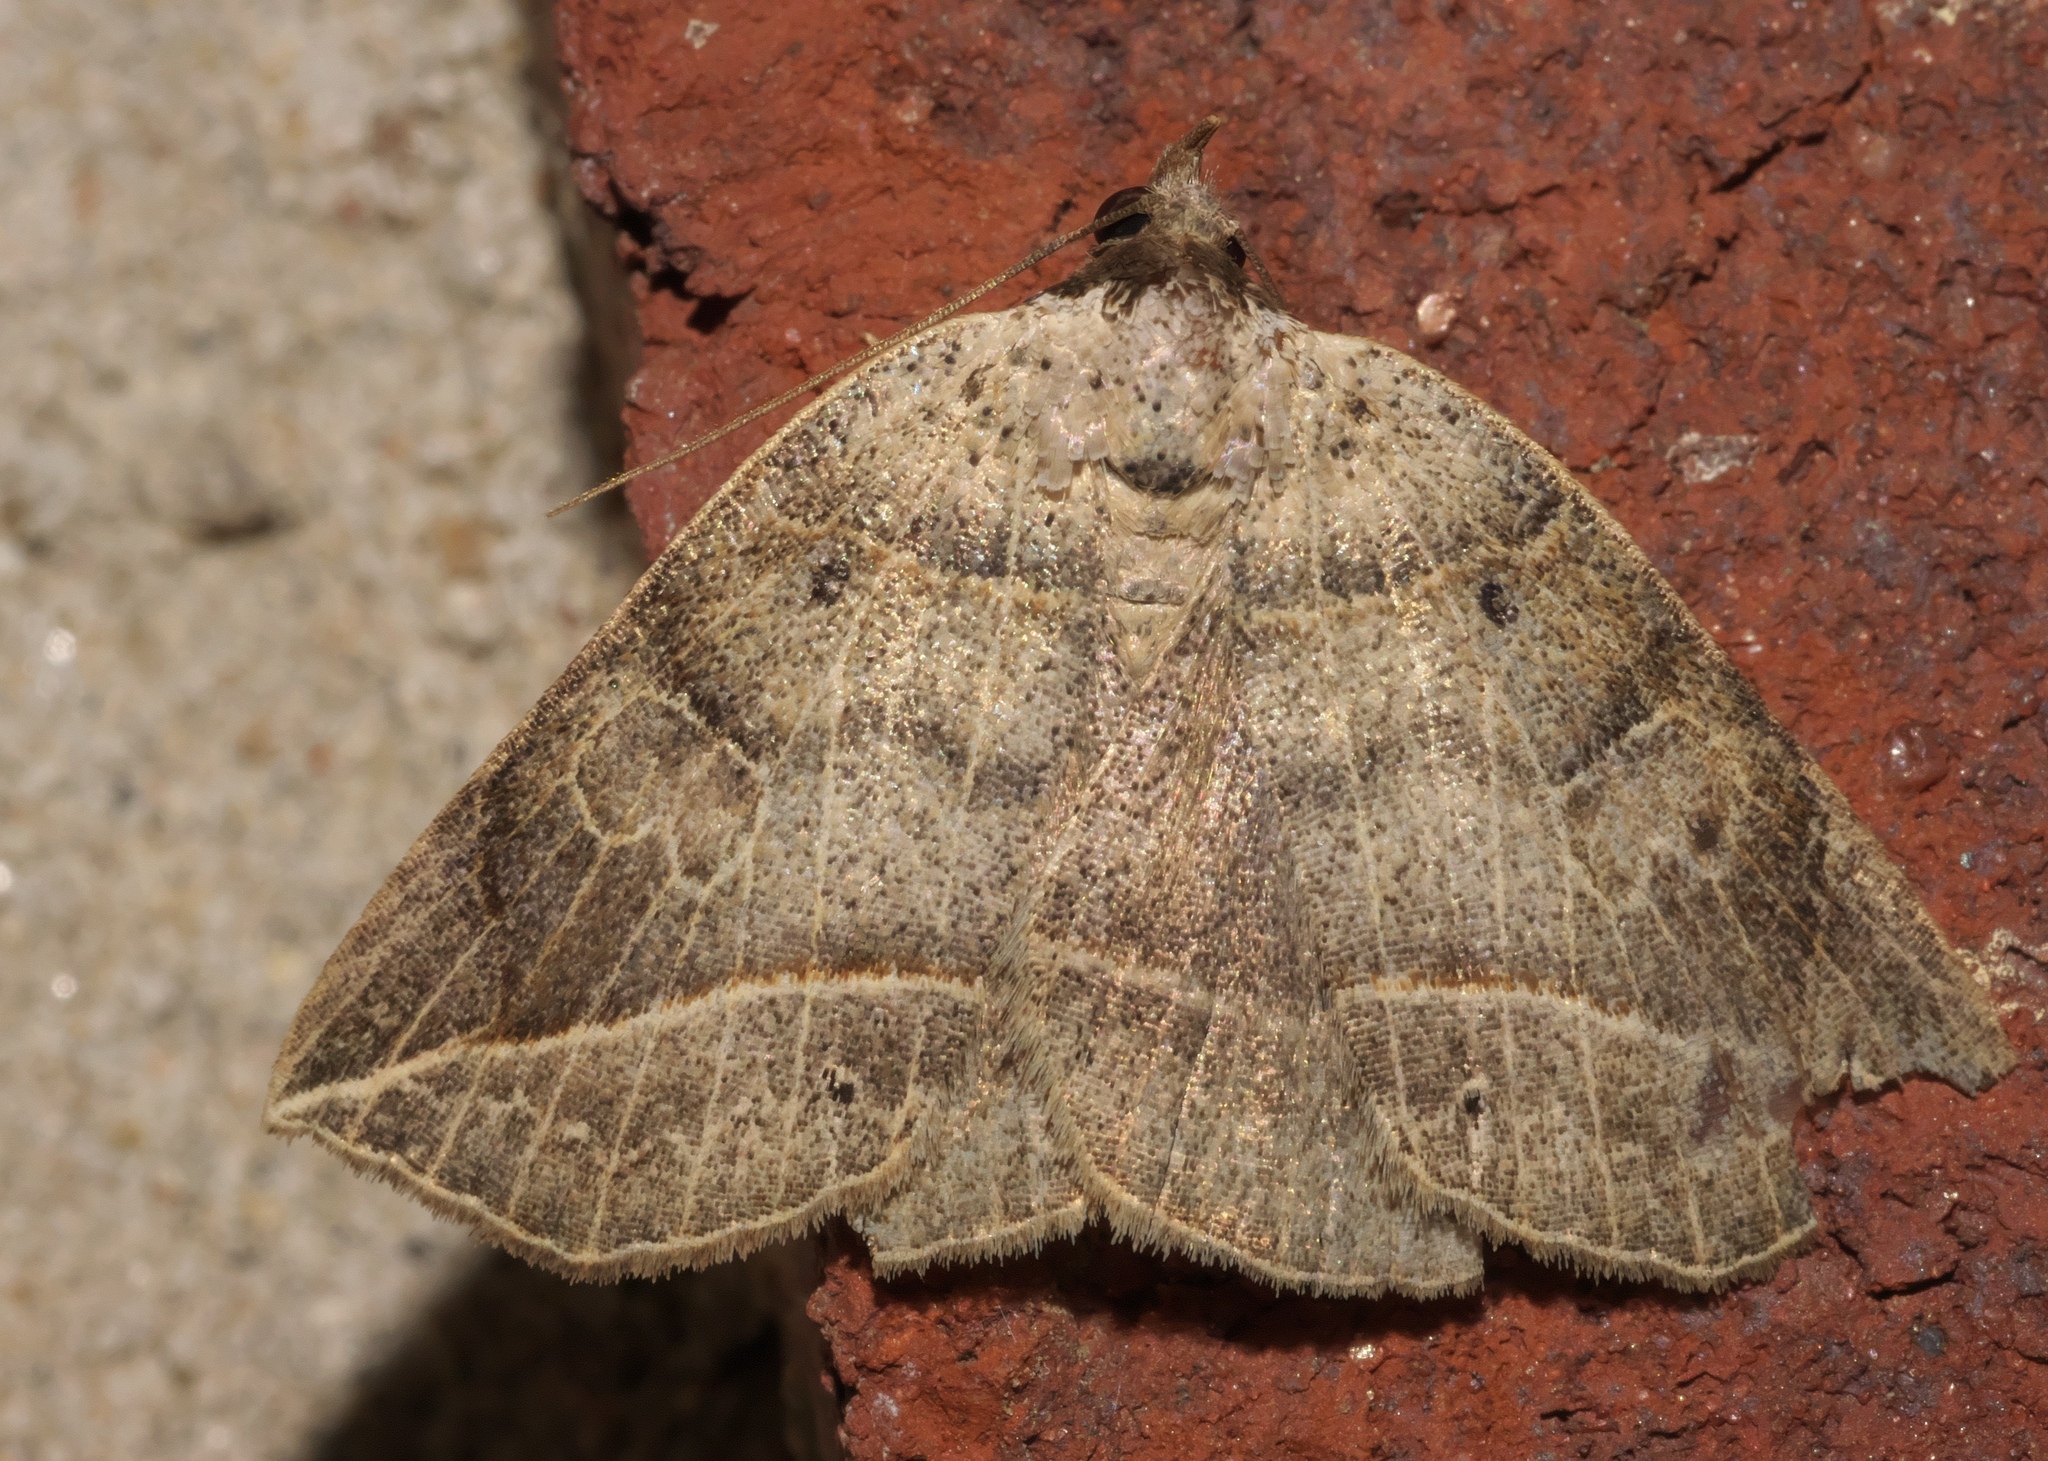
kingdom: Animalia
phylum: Arthropoda
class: Insecta
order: Lepidoptera
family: Erebidae
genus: Isogona
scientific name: Isogona tenuis
